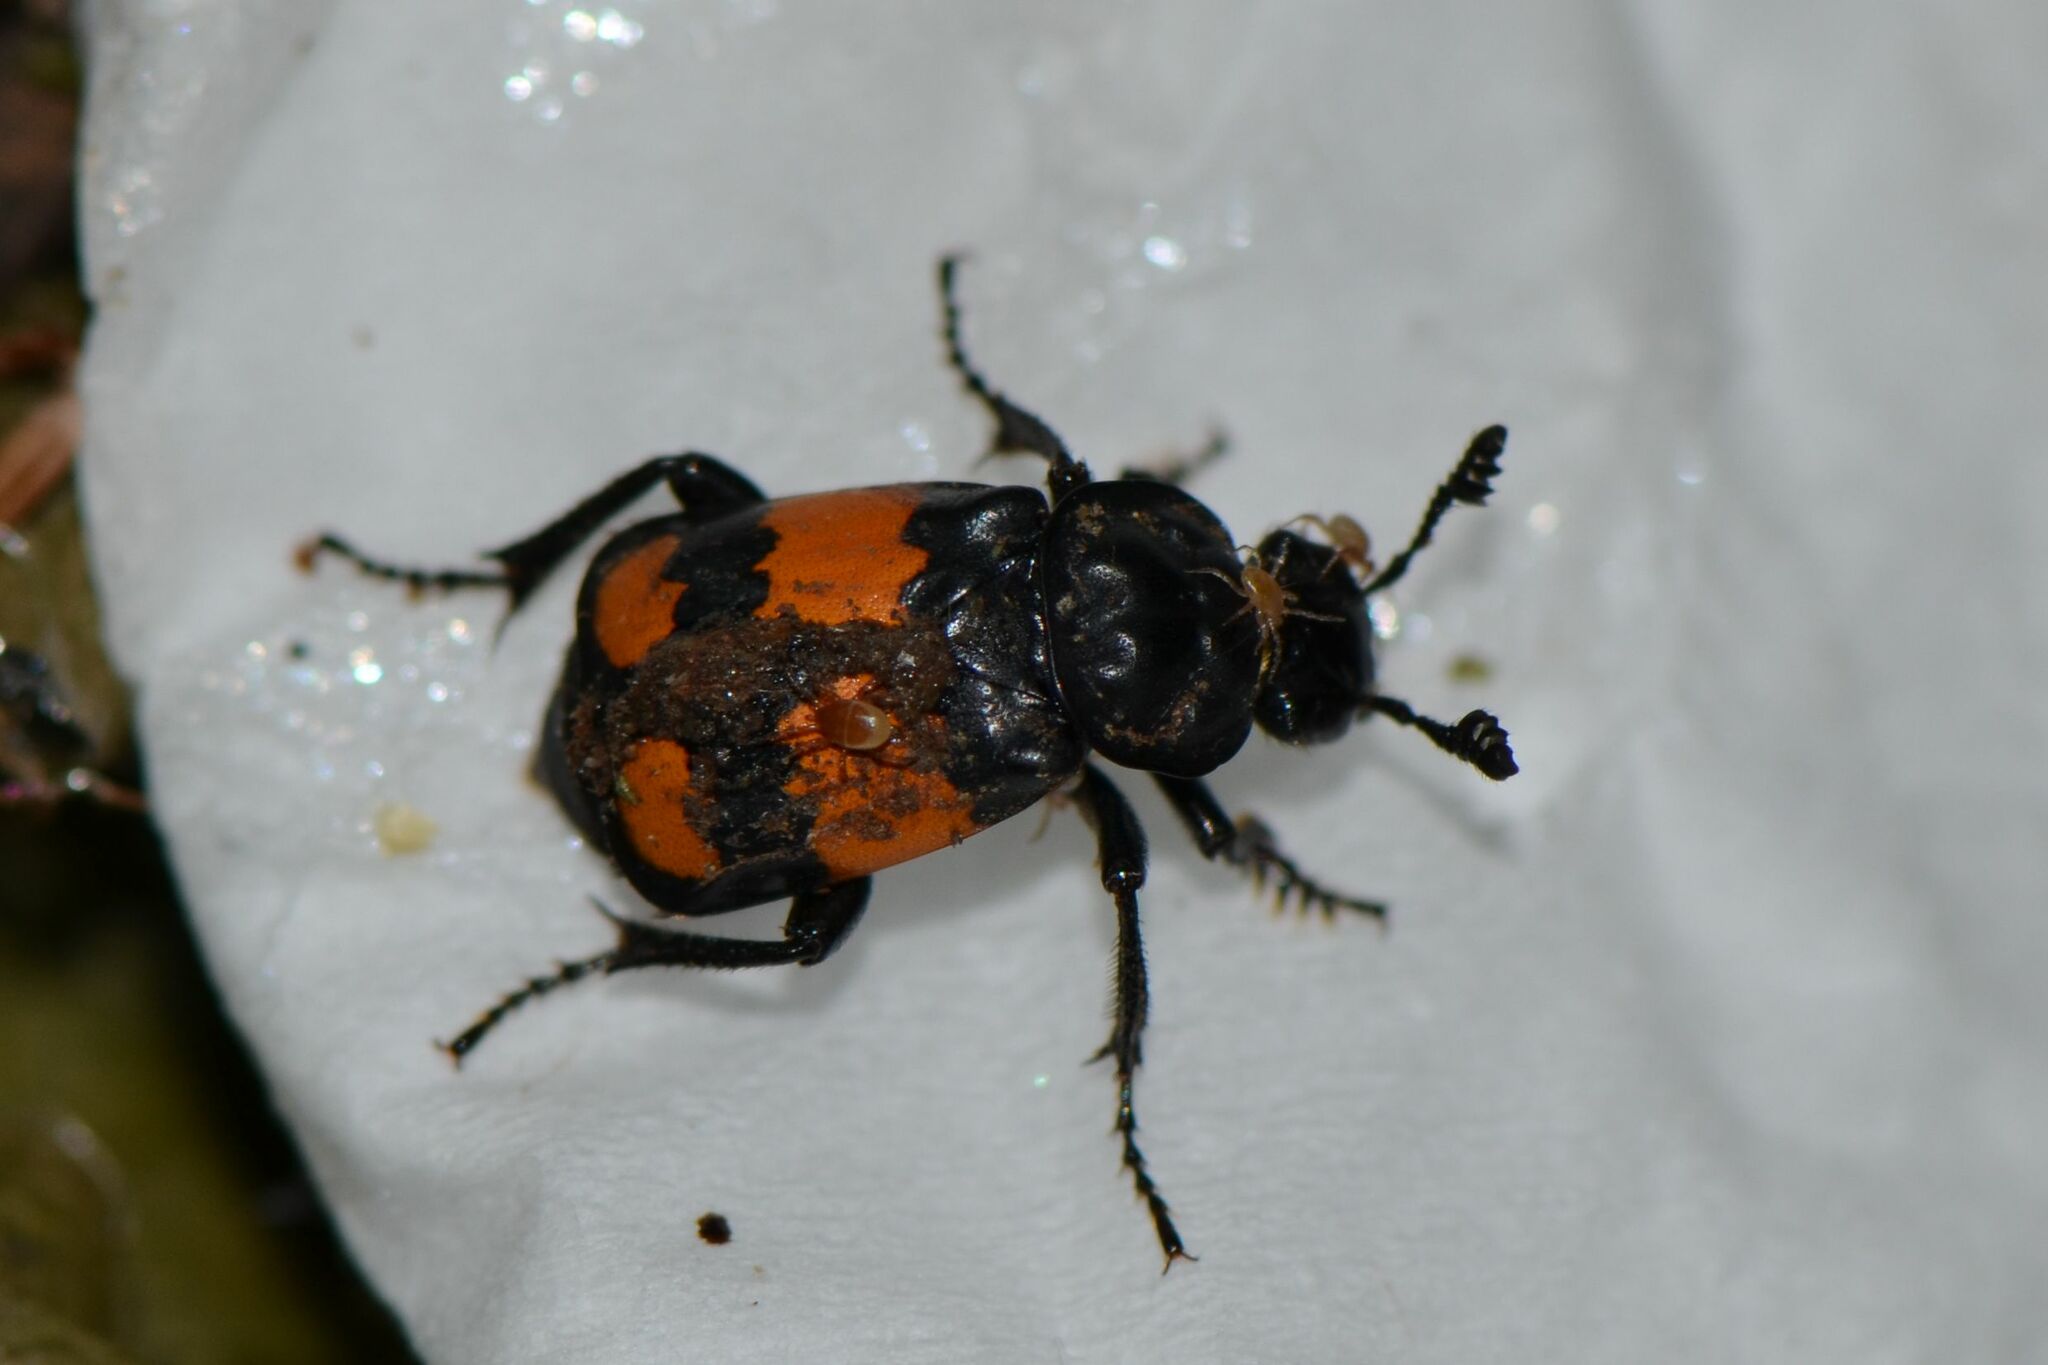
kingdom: Animalia
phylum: Arthropoda
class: Insecta
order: Coleoptera
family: Staphylinidae
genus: Nicrophorus
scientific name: Nicrophorus vespilloides
